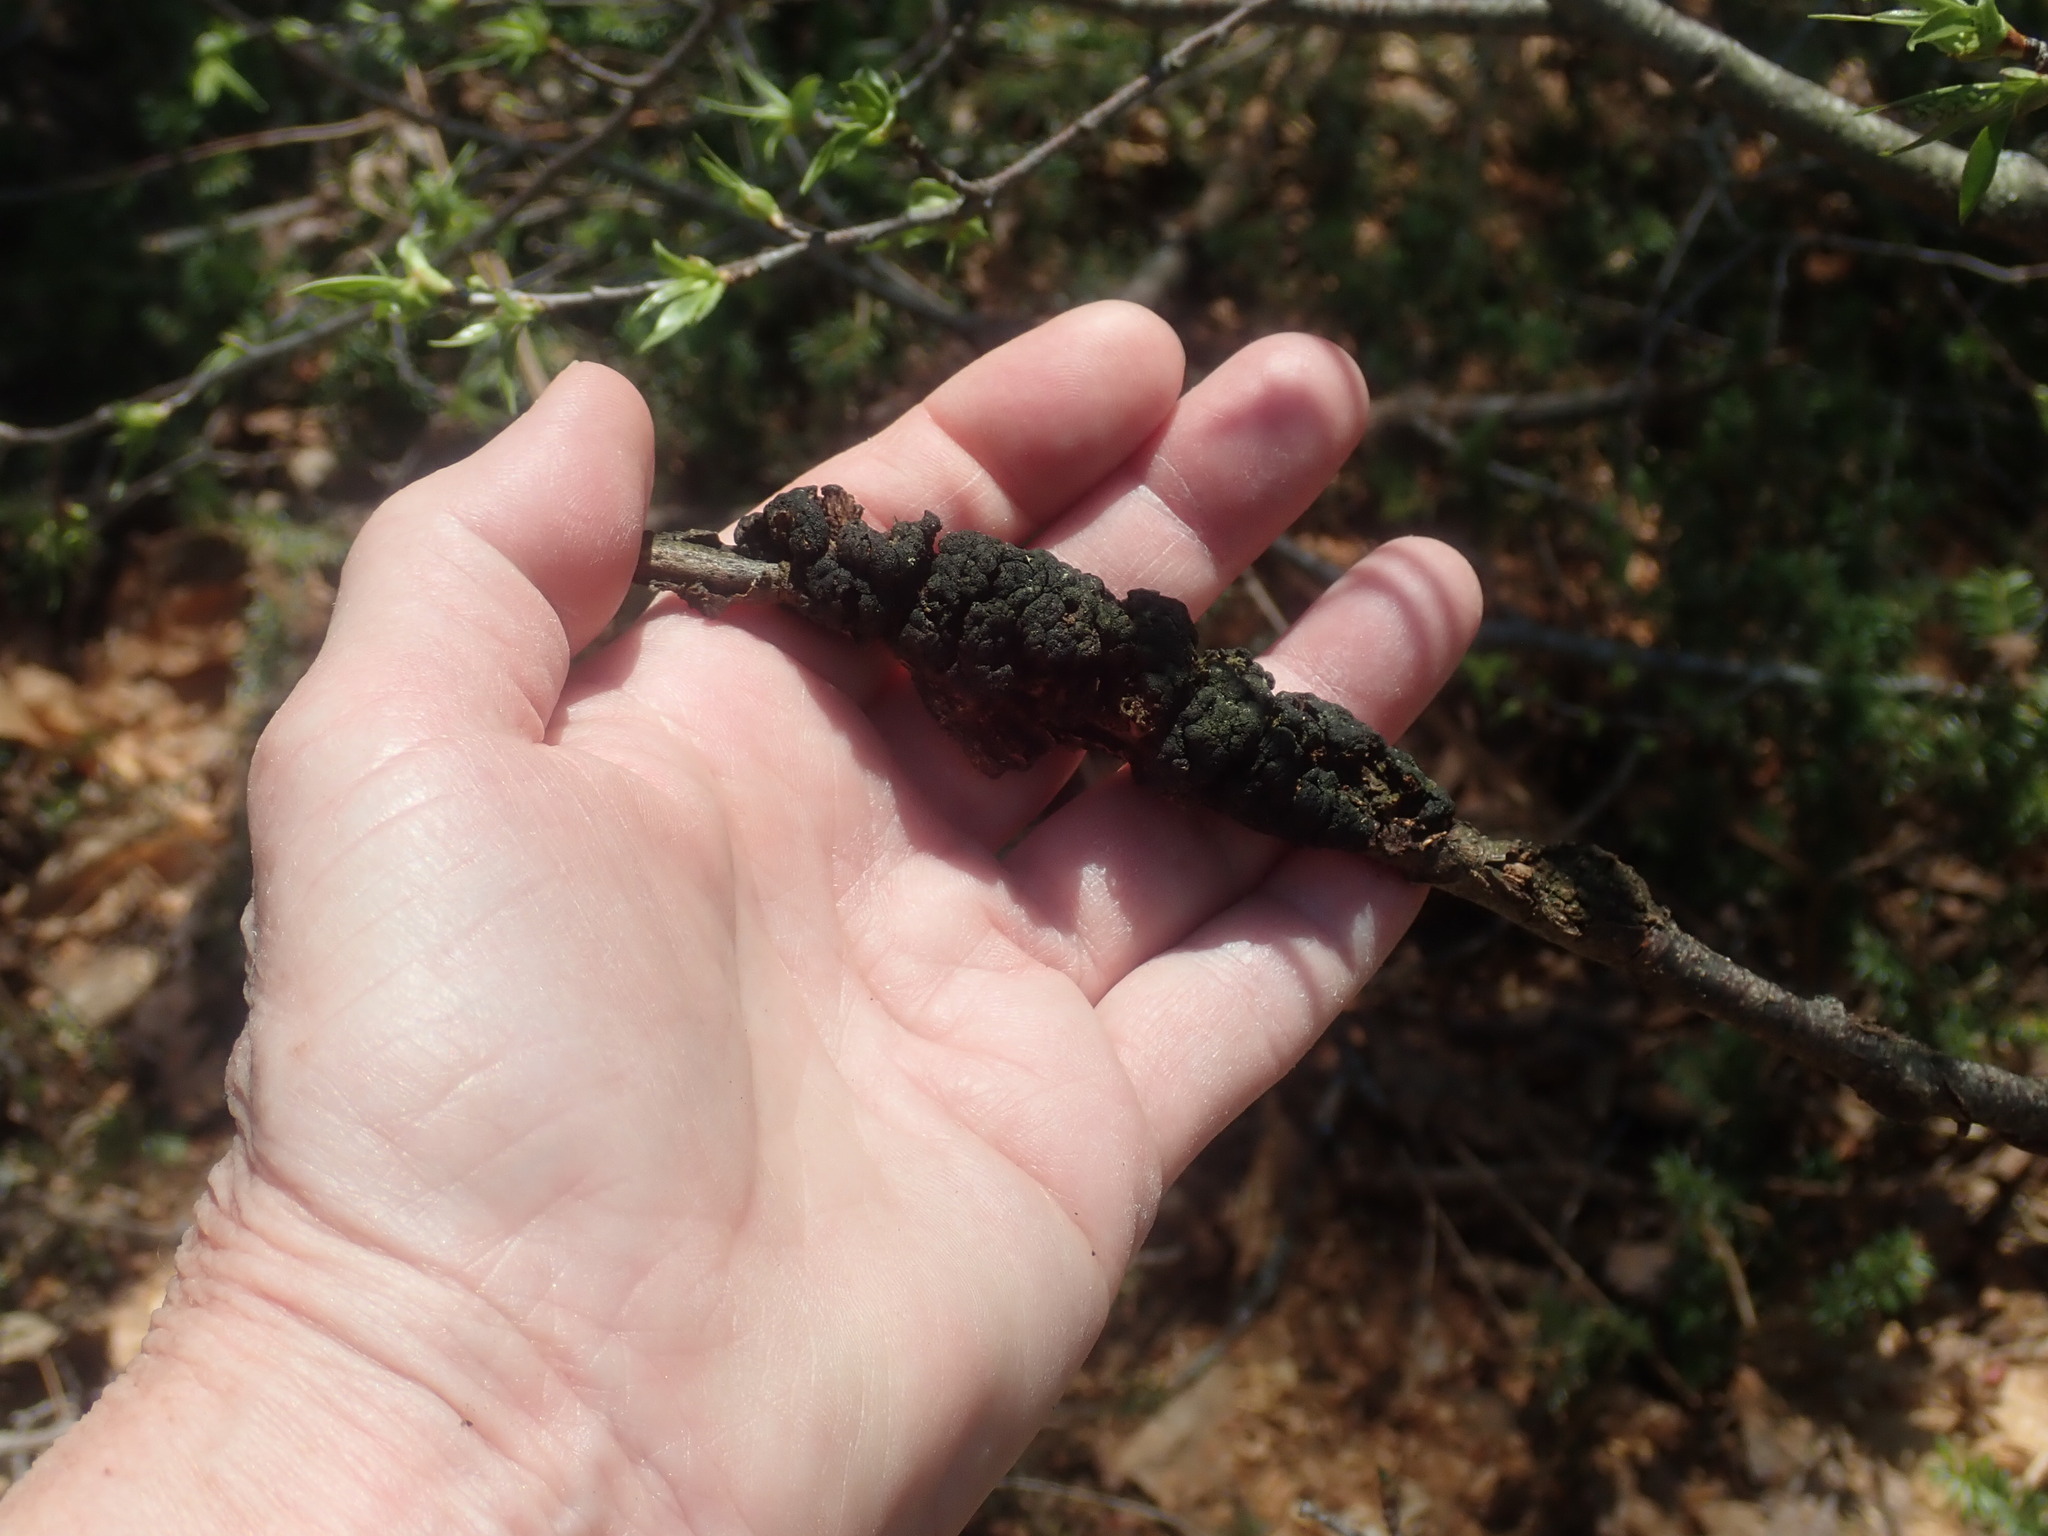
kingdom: Fungi
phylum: Ascomycota
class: Dothideomycetes
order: Venturiales
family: Venturiaceae
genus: Apiosporina
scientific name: Apiosporina morbosa
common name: Black knot
